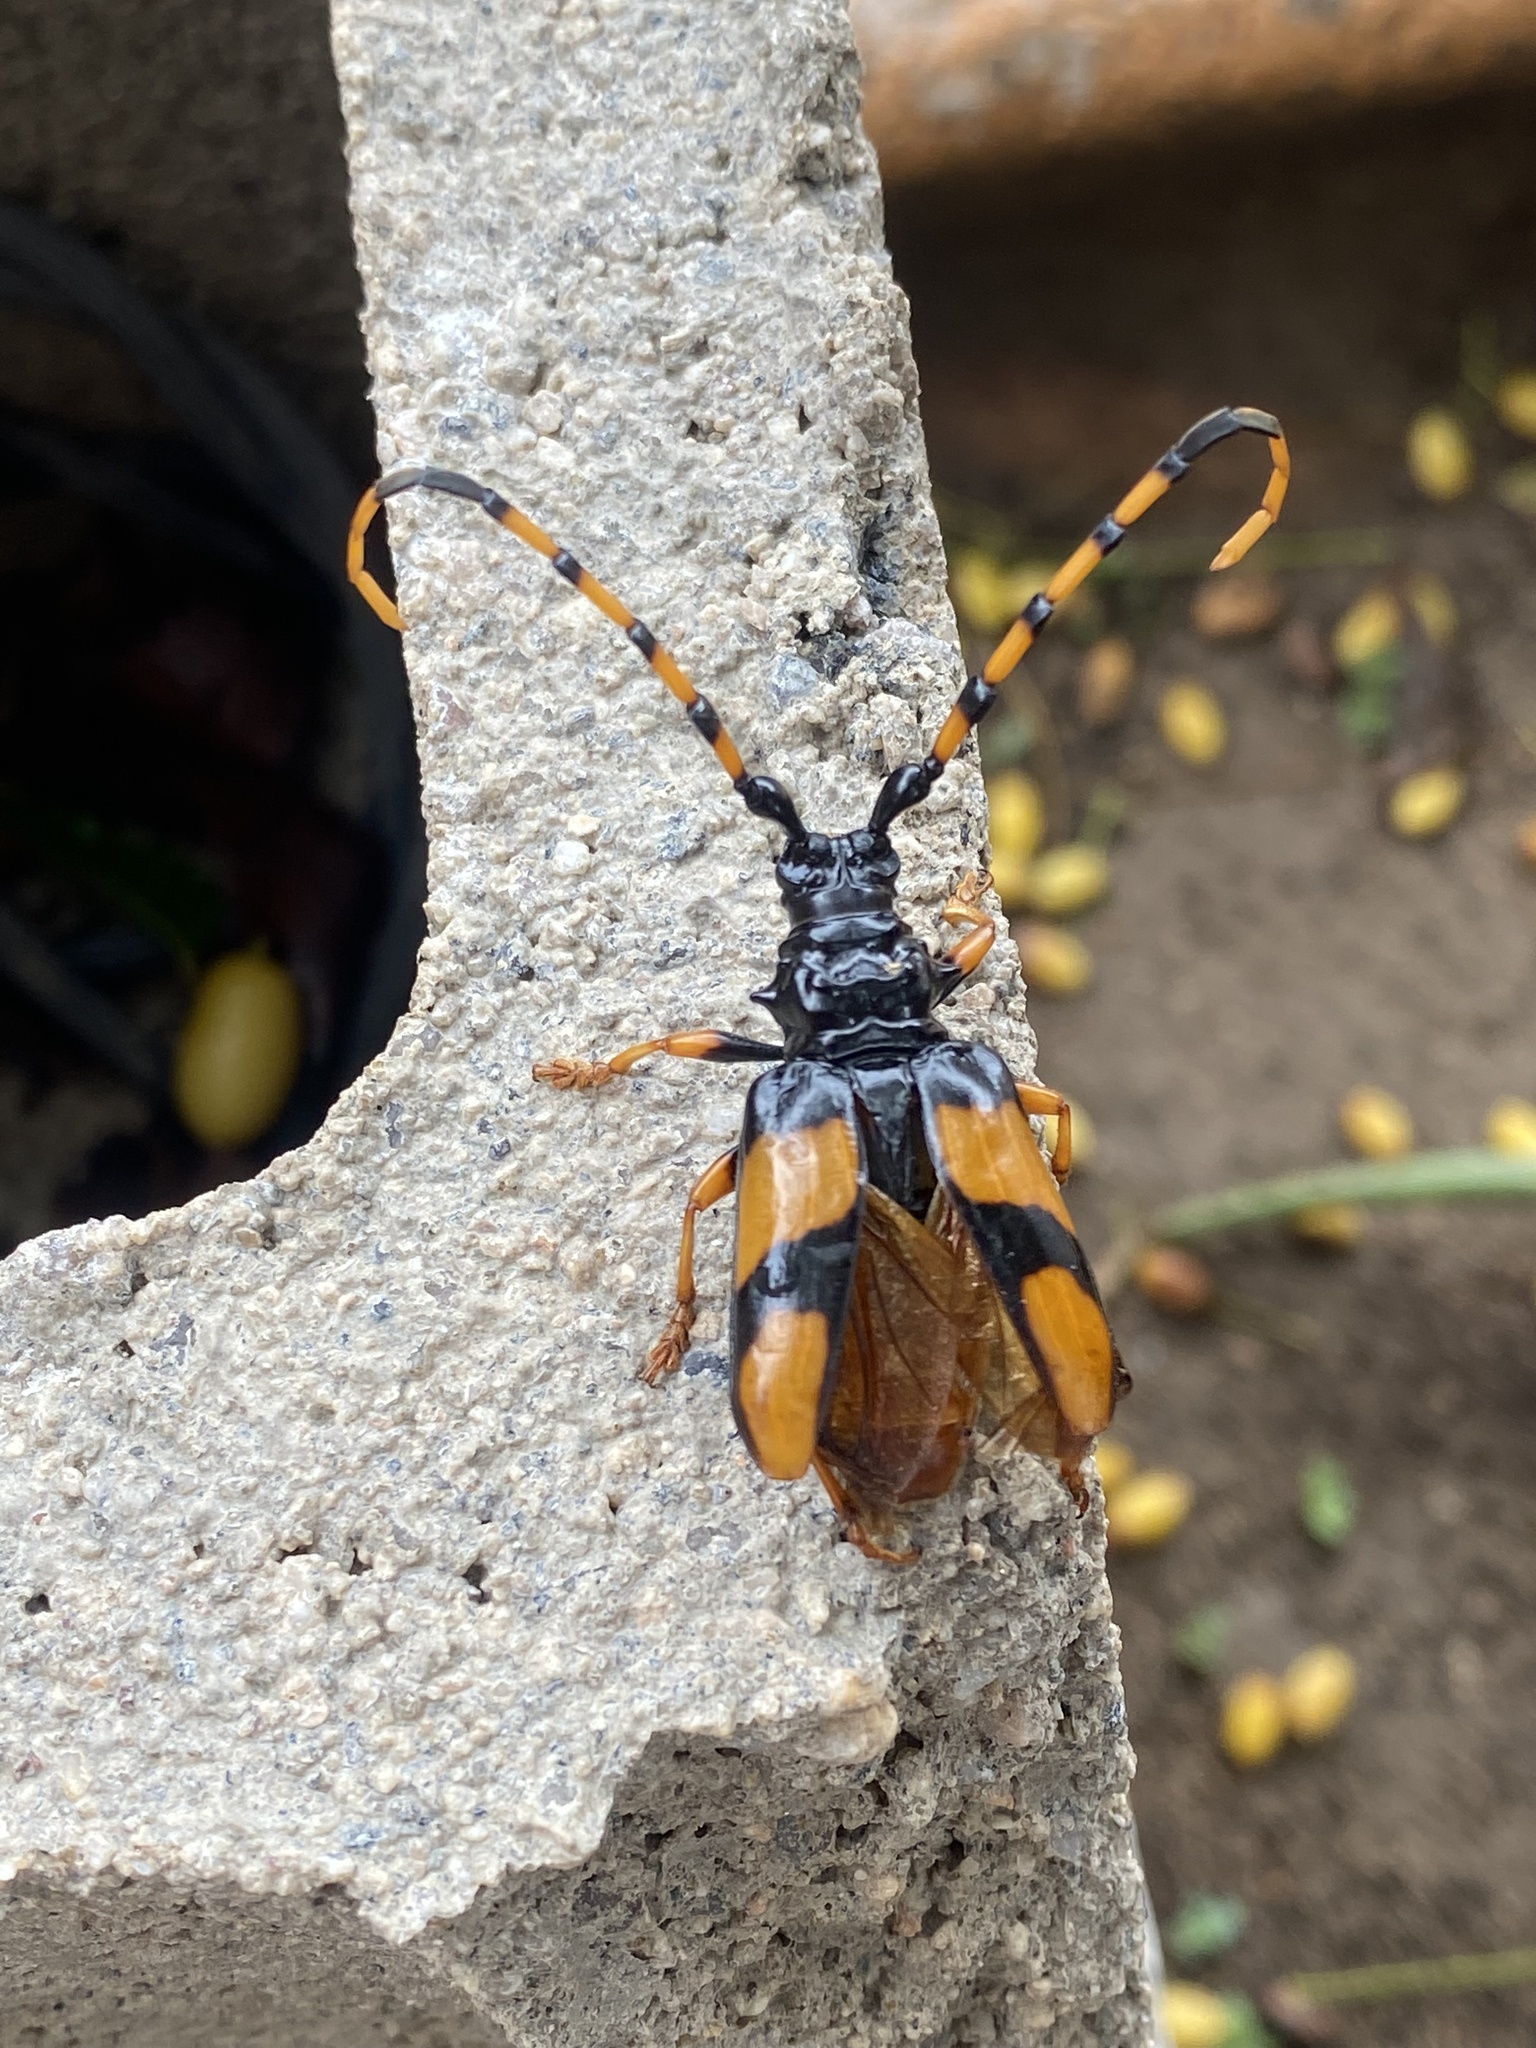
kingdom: Animalia
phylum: Arthropoda
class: Insecta
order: Coleoptera
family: Cerambycidae
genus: Trachyderes
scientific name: Trachyderes mandibularis
